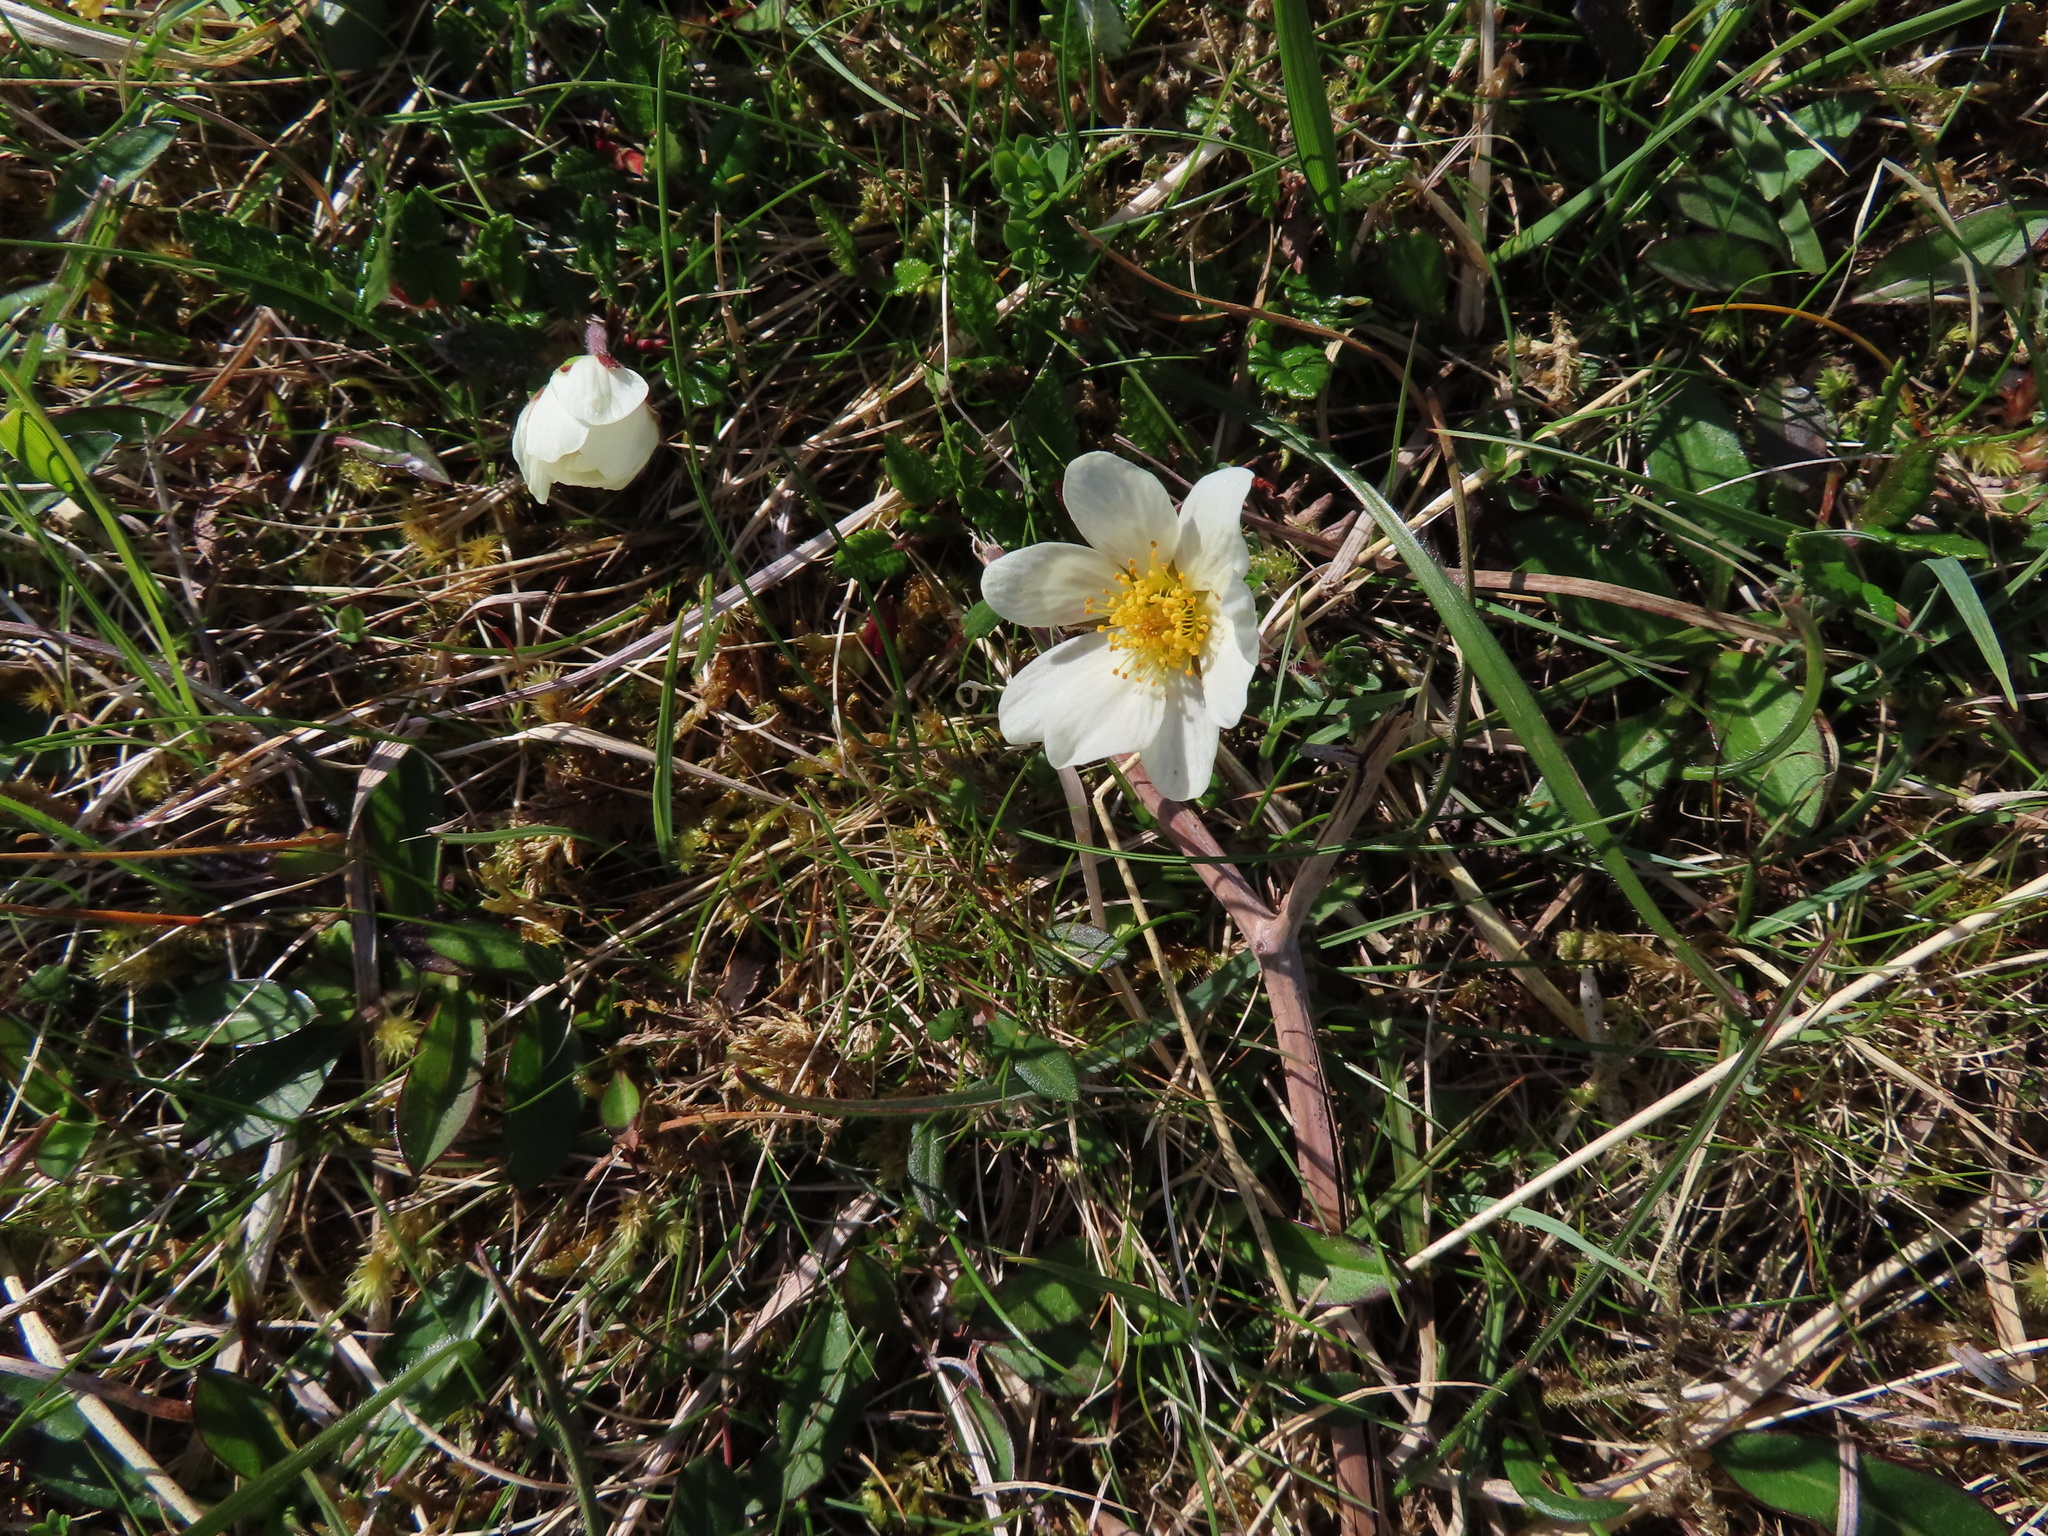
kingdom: Plantae
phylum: Tracheophyta
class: Magnoliopsida
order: Rosales
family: Rosaceae
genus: Dryas
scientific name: Dryas octopetala
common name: Eight-petal mountain-avens
